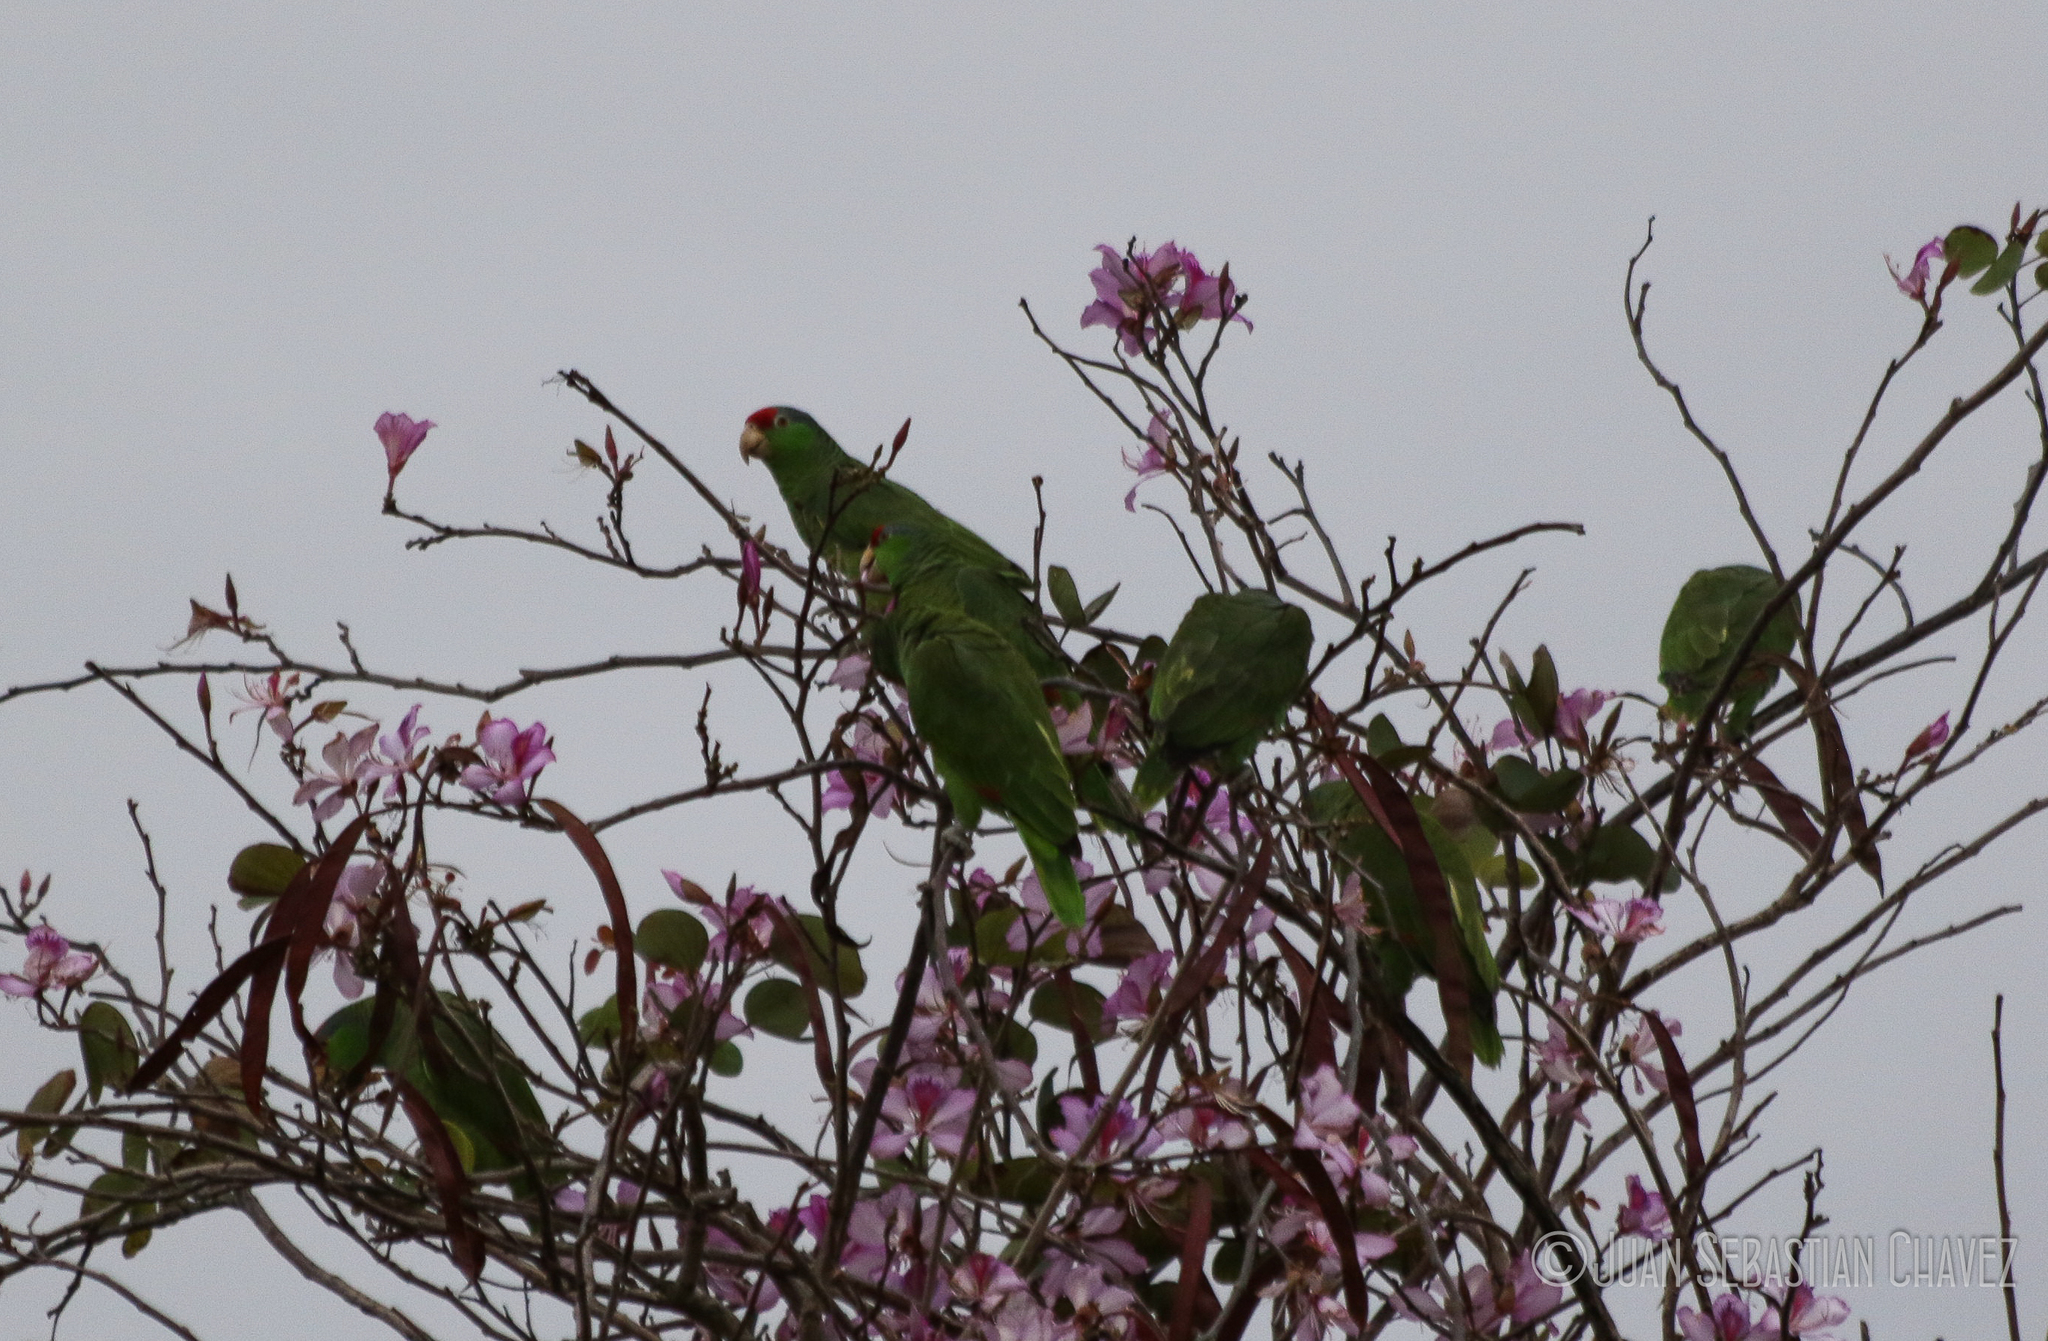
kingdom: Animalia
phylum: Chordata
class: Aves
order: Psittaciformes
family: Psittacidae
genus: Amazona
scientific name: Amazona viridigenalis
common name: Red-crowned amazon
